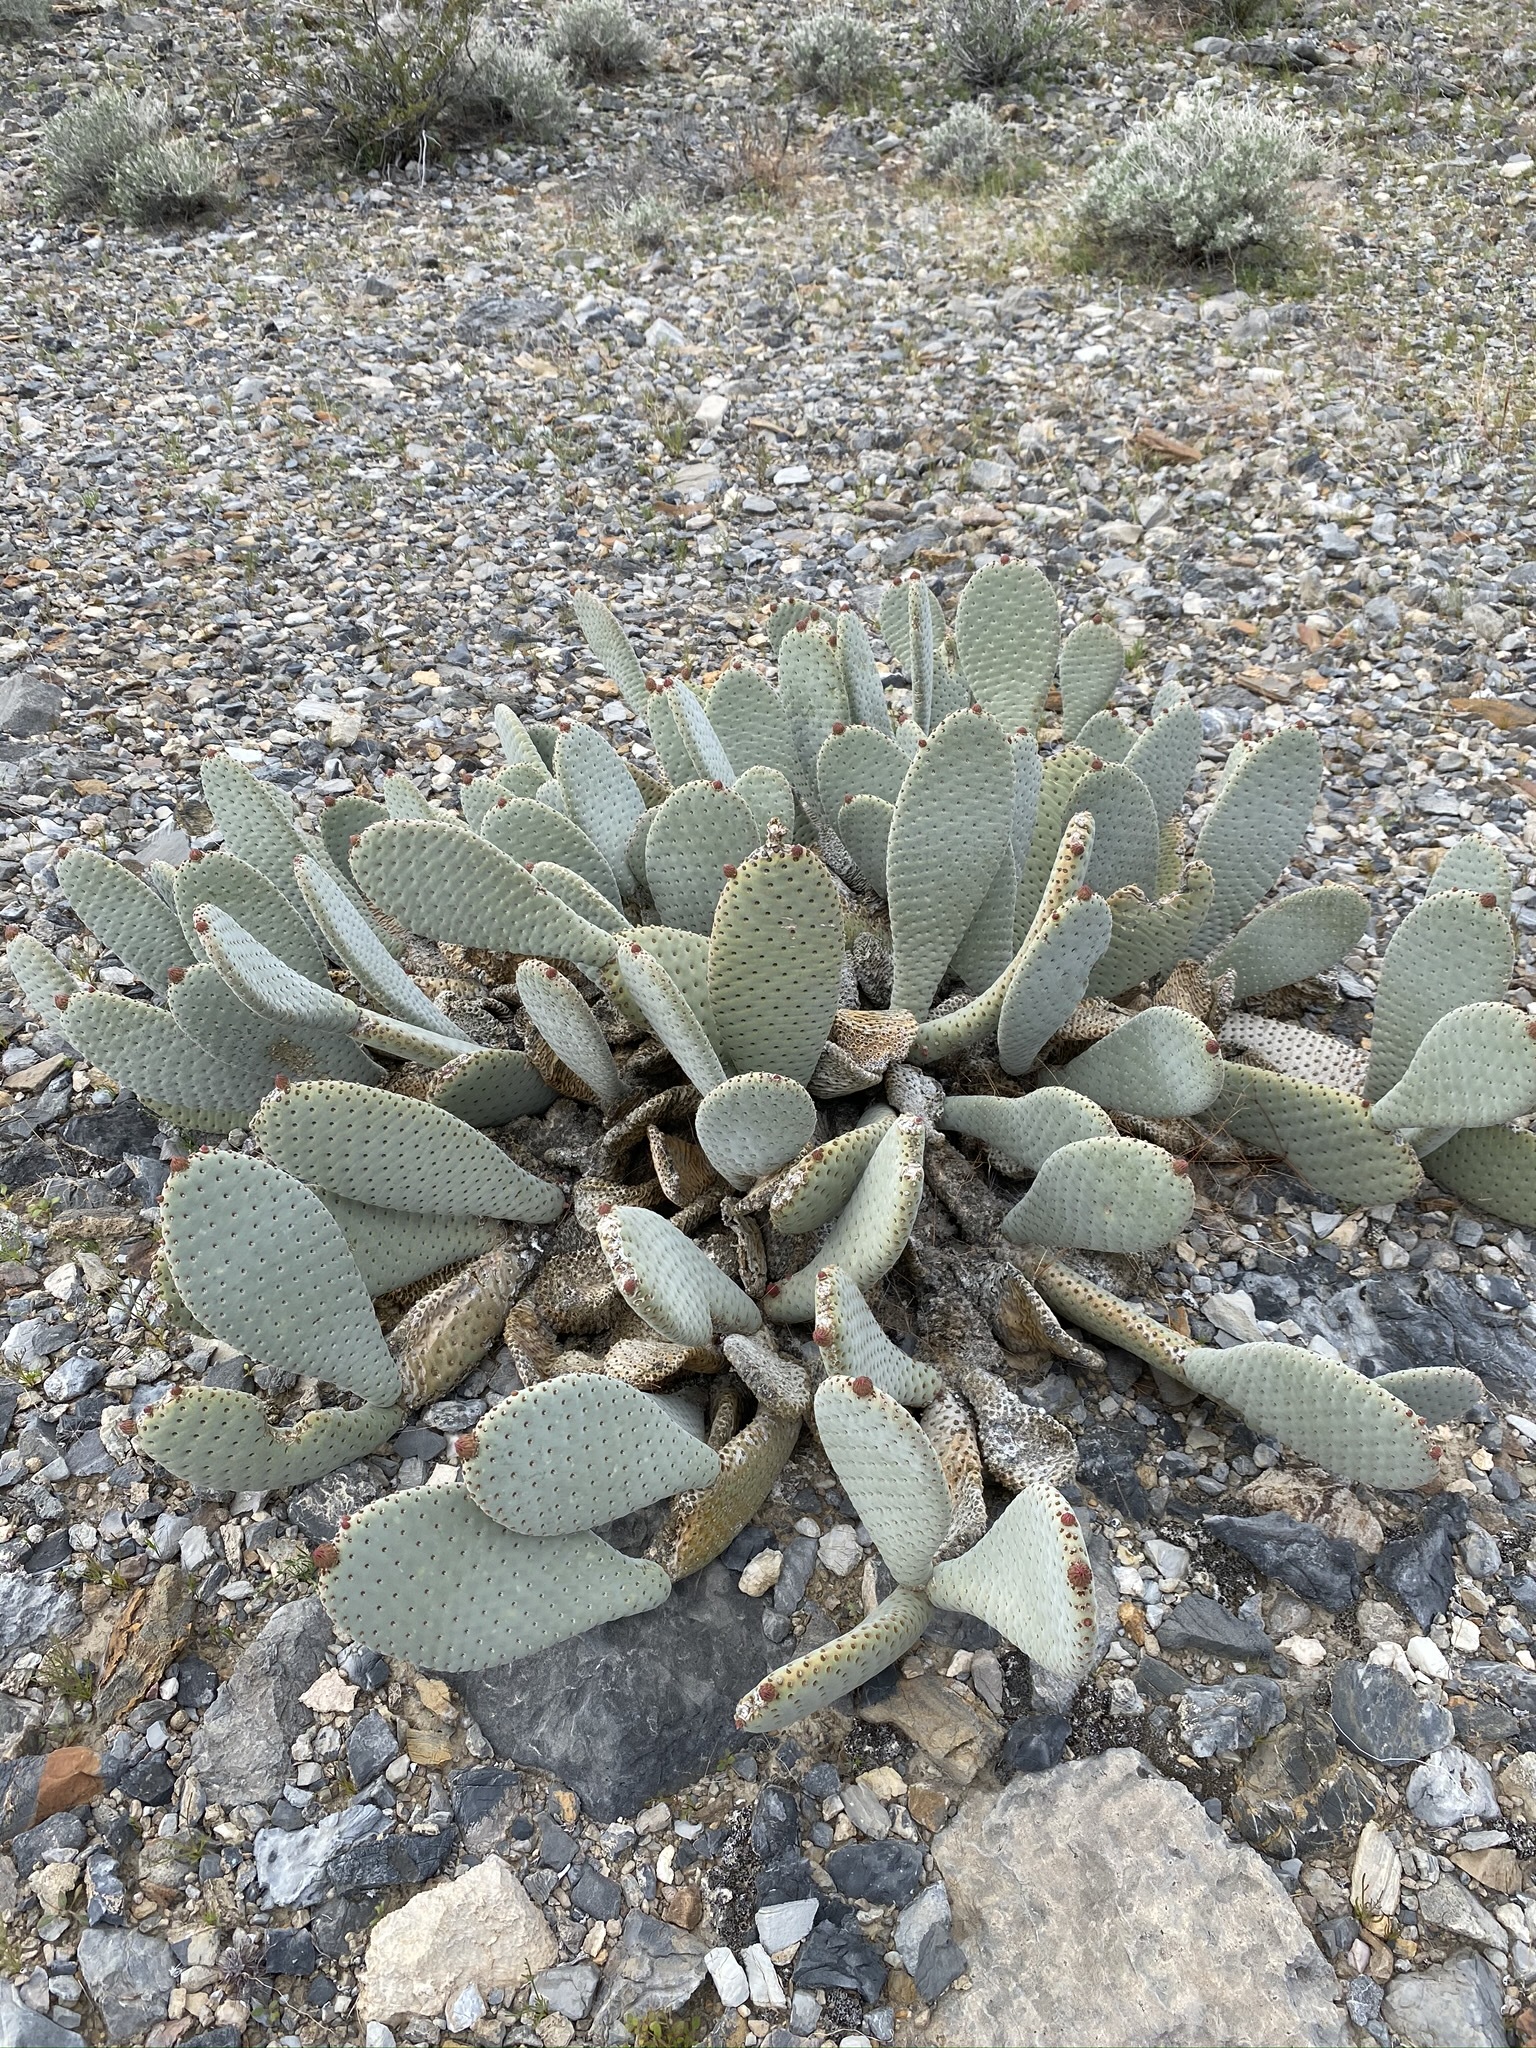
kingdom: Plantae
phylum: Tracheophyta
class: Magnoliopsida
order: Caryophyllales
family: Cactaceae
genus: Opuntia
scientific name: Opuntia basilaris
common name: Beavertail prickly-pear
